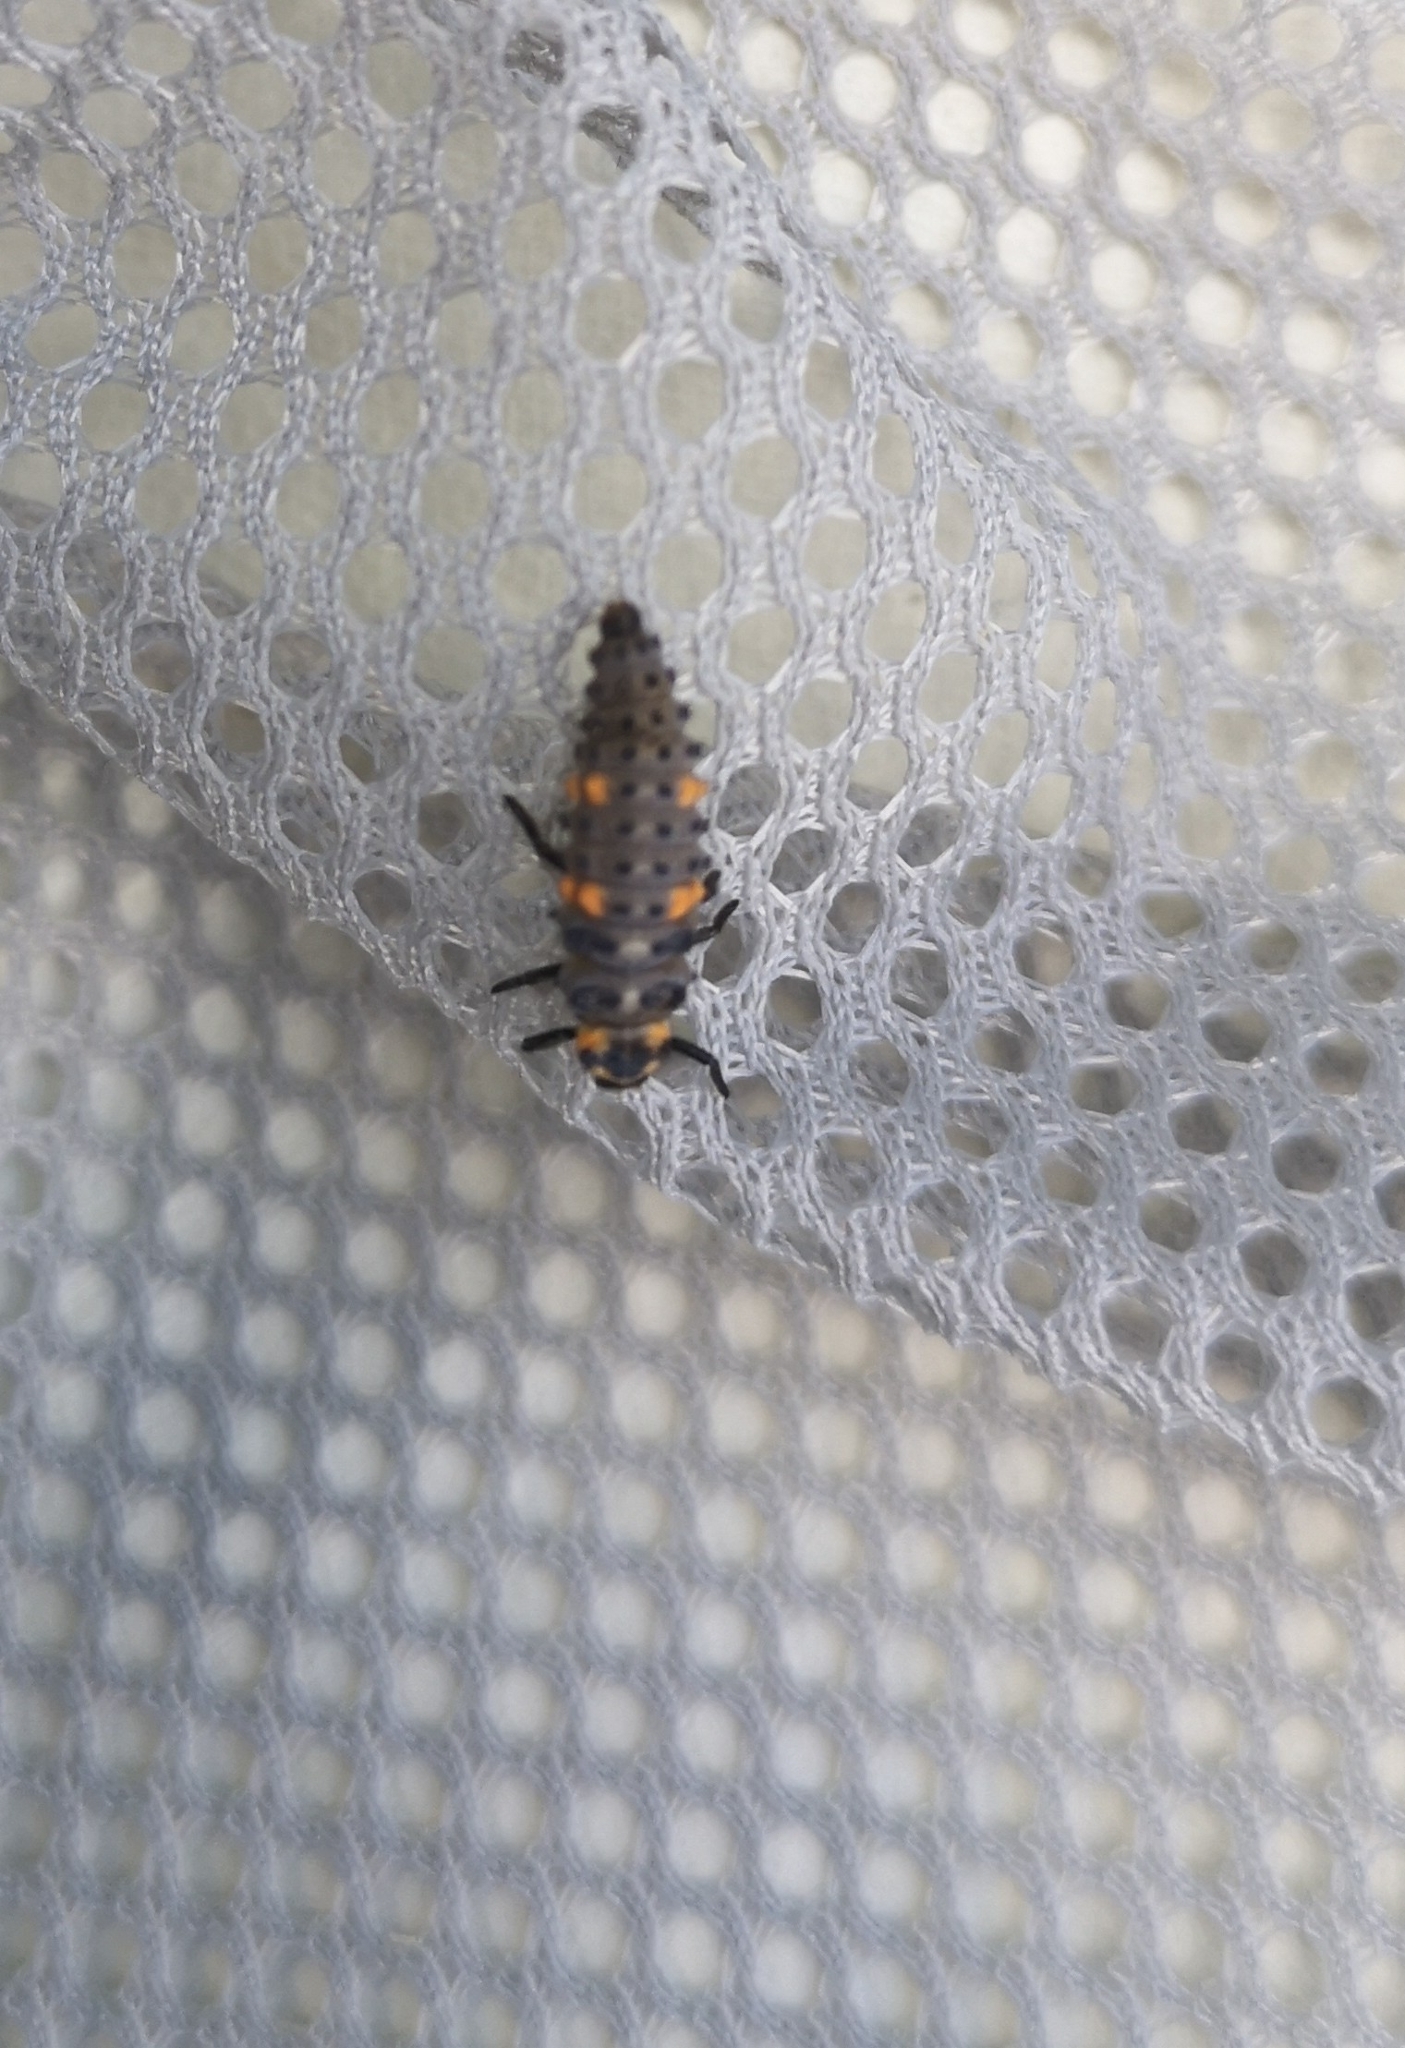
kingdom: Animalia
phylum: Arthropoda
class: Insecta
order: Coleoptera
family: Coccinellidae
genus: Coccinella
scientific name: Coccinella septempunctata
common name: Sevenspotted lady beetle
